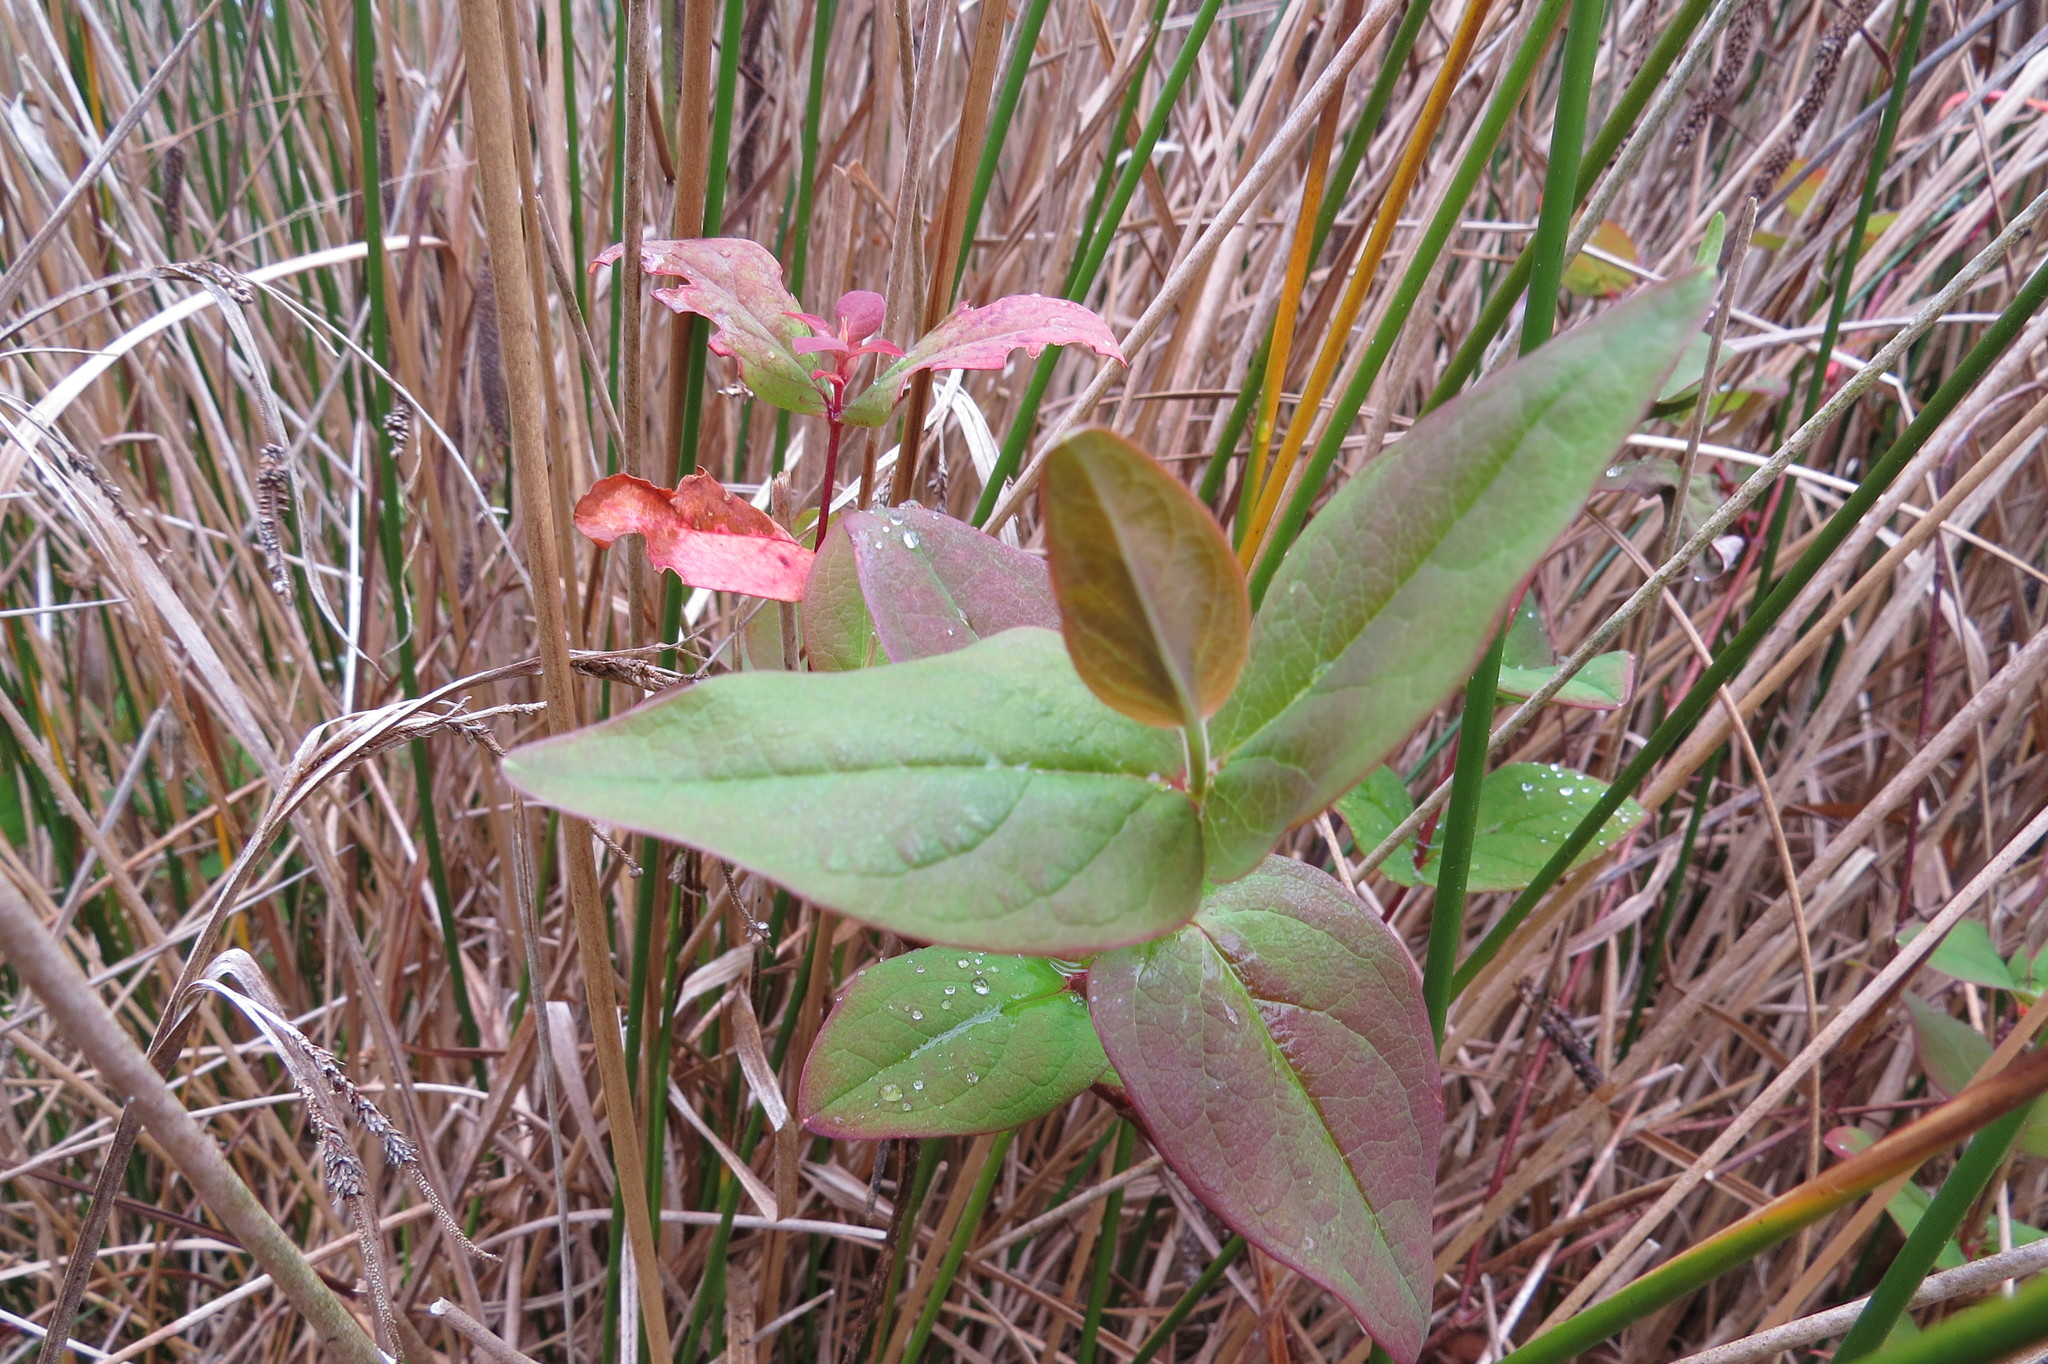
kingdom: Plantae
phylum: Tracheophyta
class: Magnoliopsida
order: Malpighiales
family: Hypericaceae
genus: Hypericum
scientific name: Hypericum androsaemum
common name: Sweet-amber
